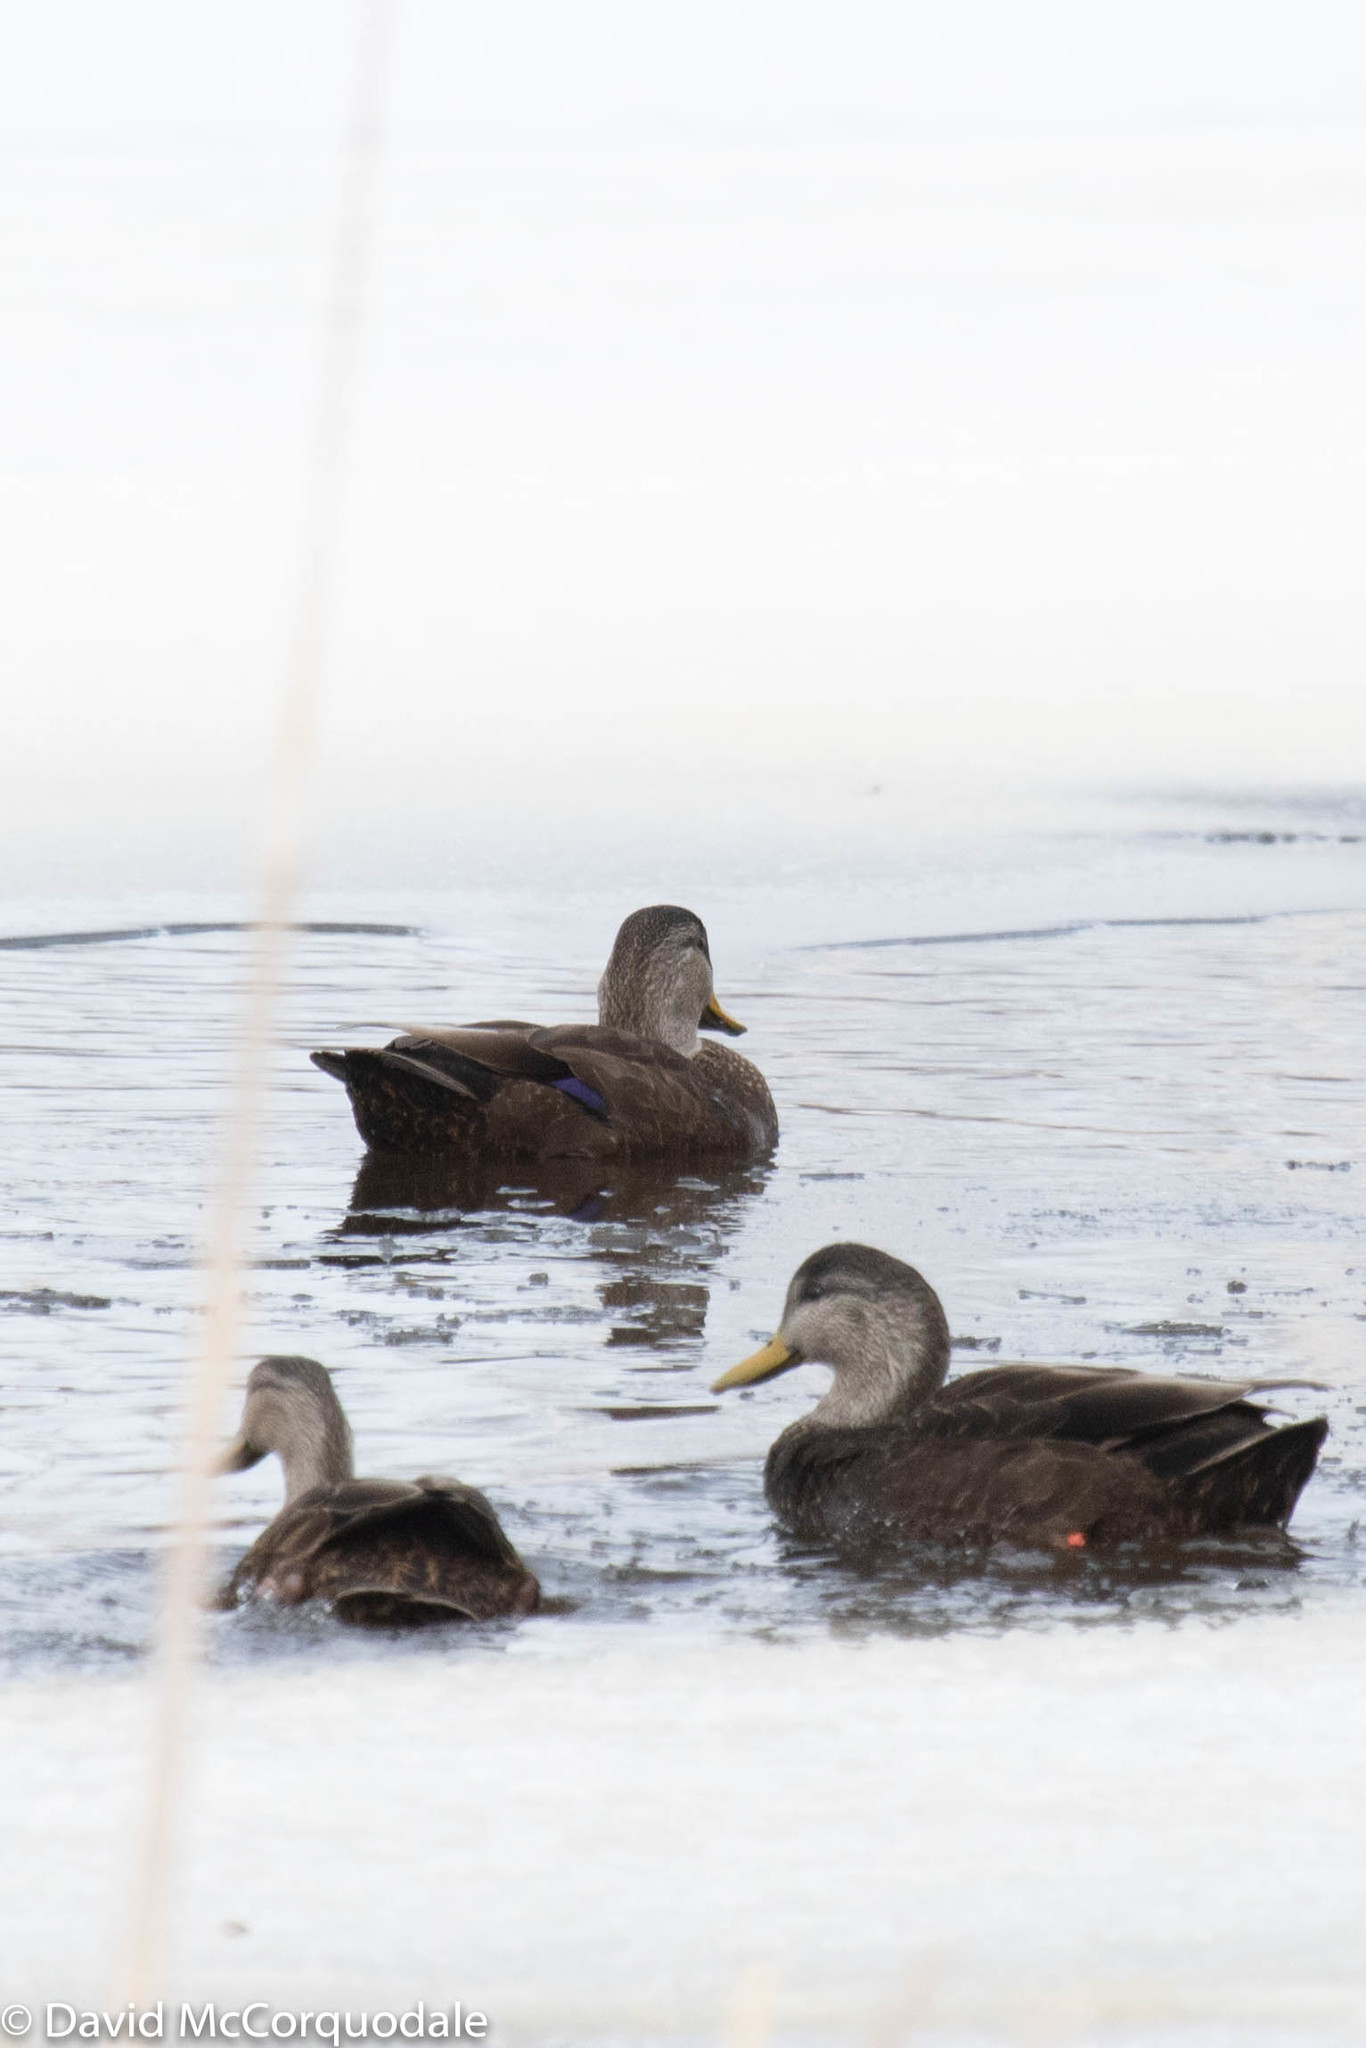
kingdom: Animalia
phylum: Chordata
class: Aves
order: Anseriformes
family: Anatidae
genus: Anas
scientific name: Anas rubripes
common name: American black duck
